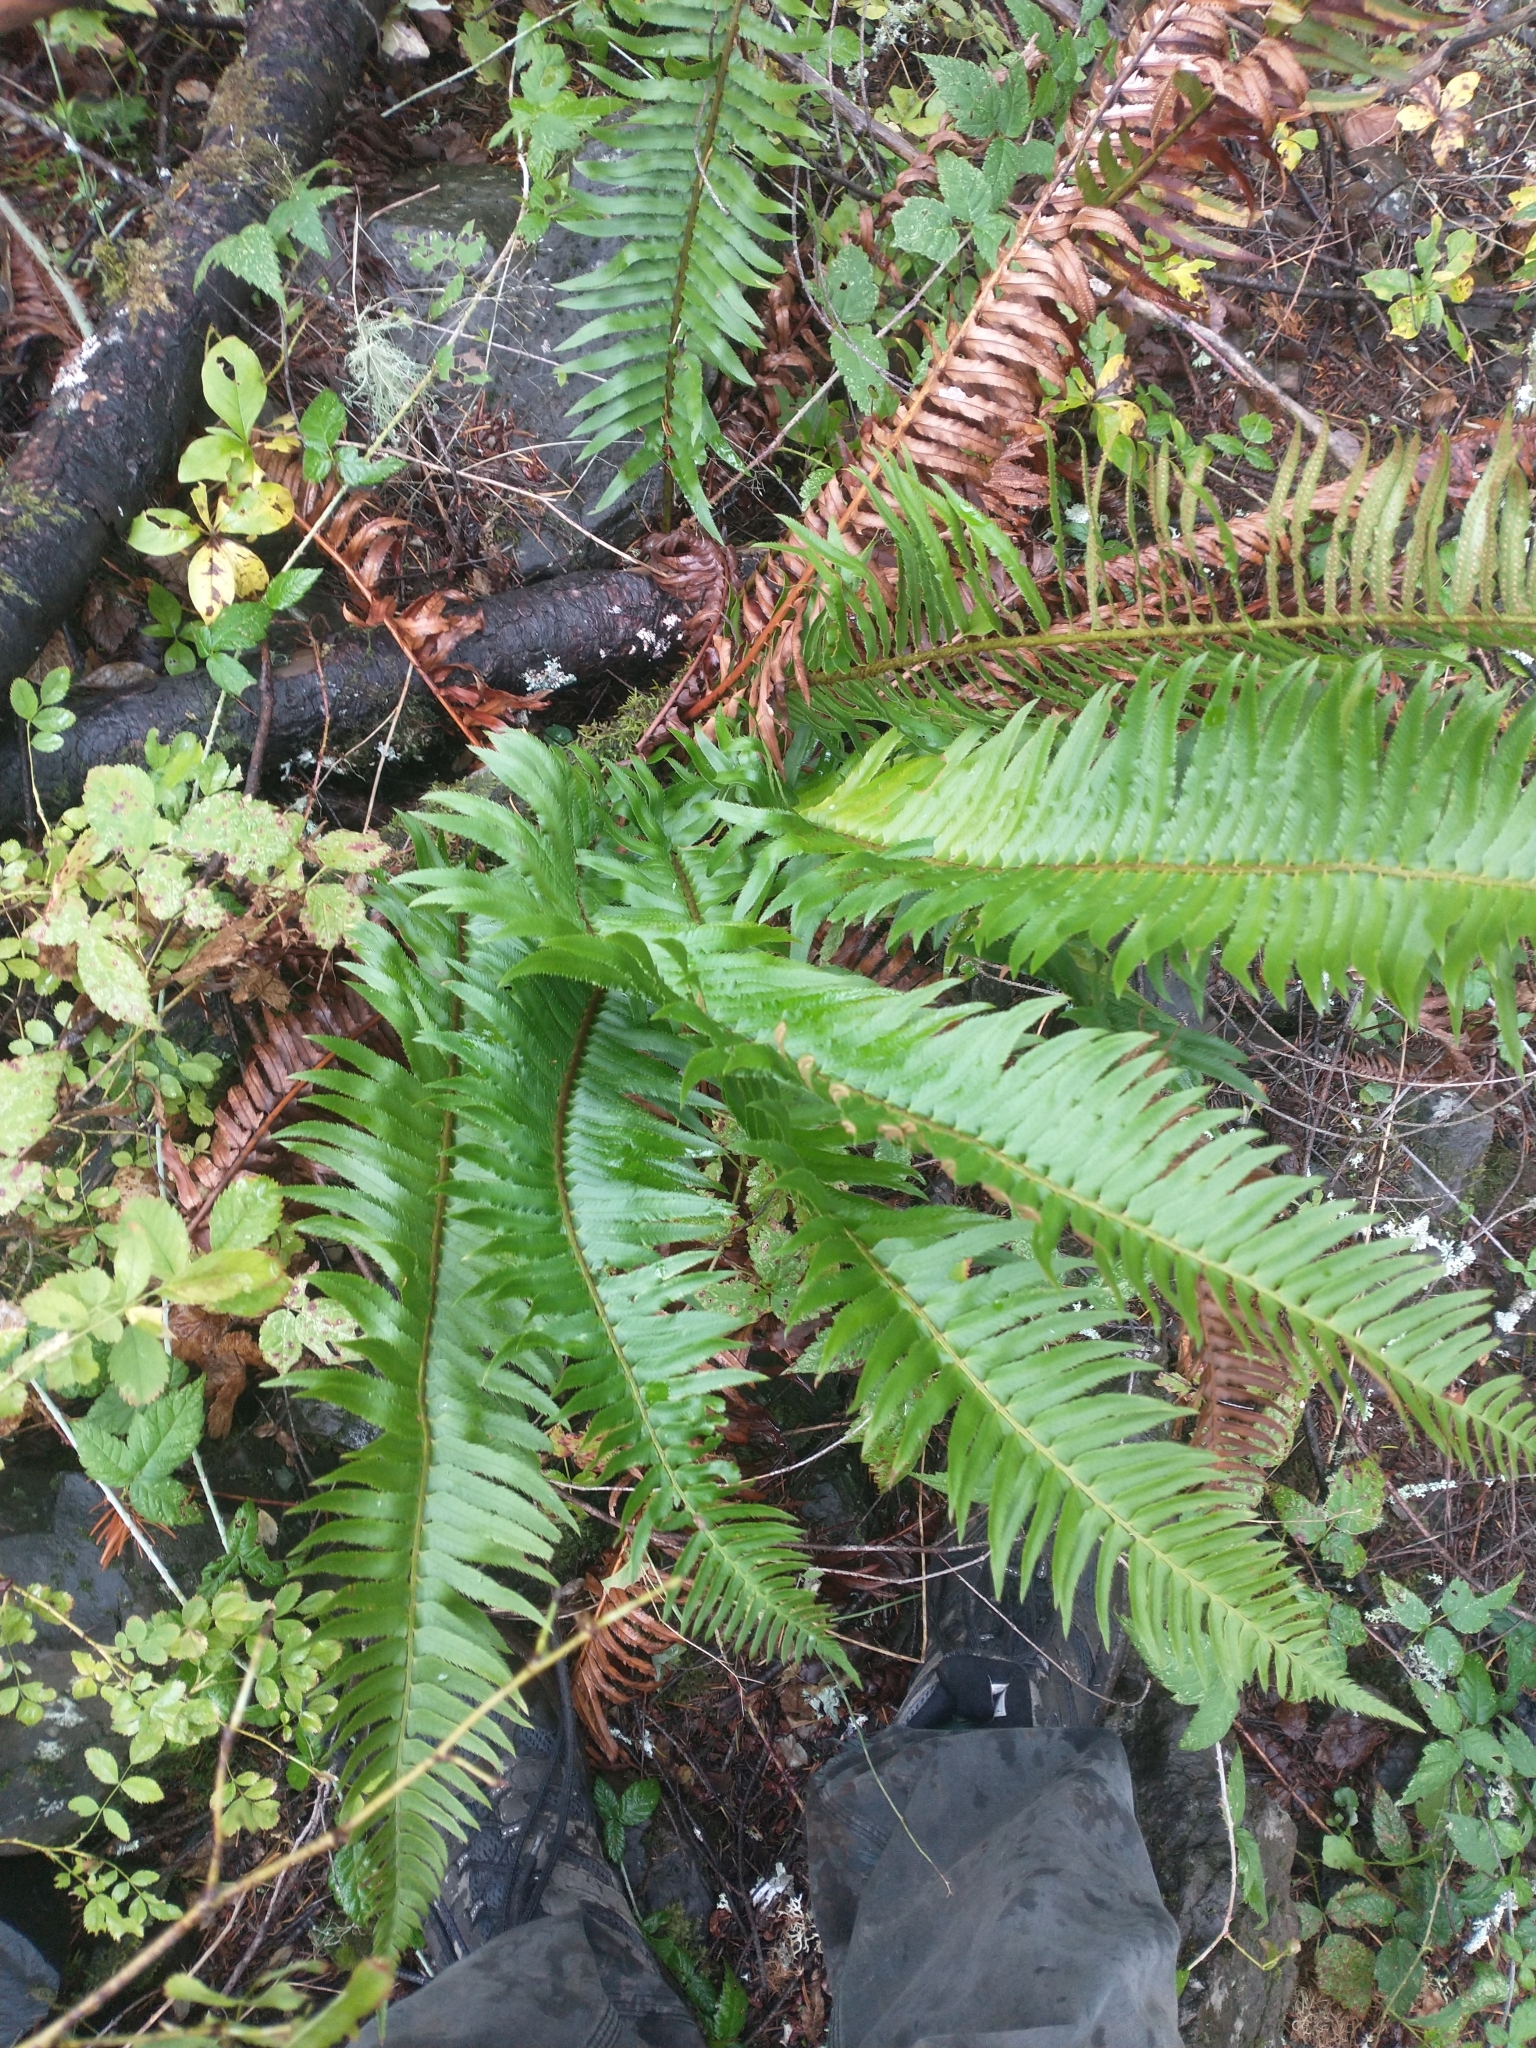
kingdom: Plantae
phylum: Tracheophyta
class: Polypodiopsida
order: Polypodiales
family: Dryopteridaceae
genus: Polystichum
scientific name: Polystichum munitum
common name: Western sword-fern
